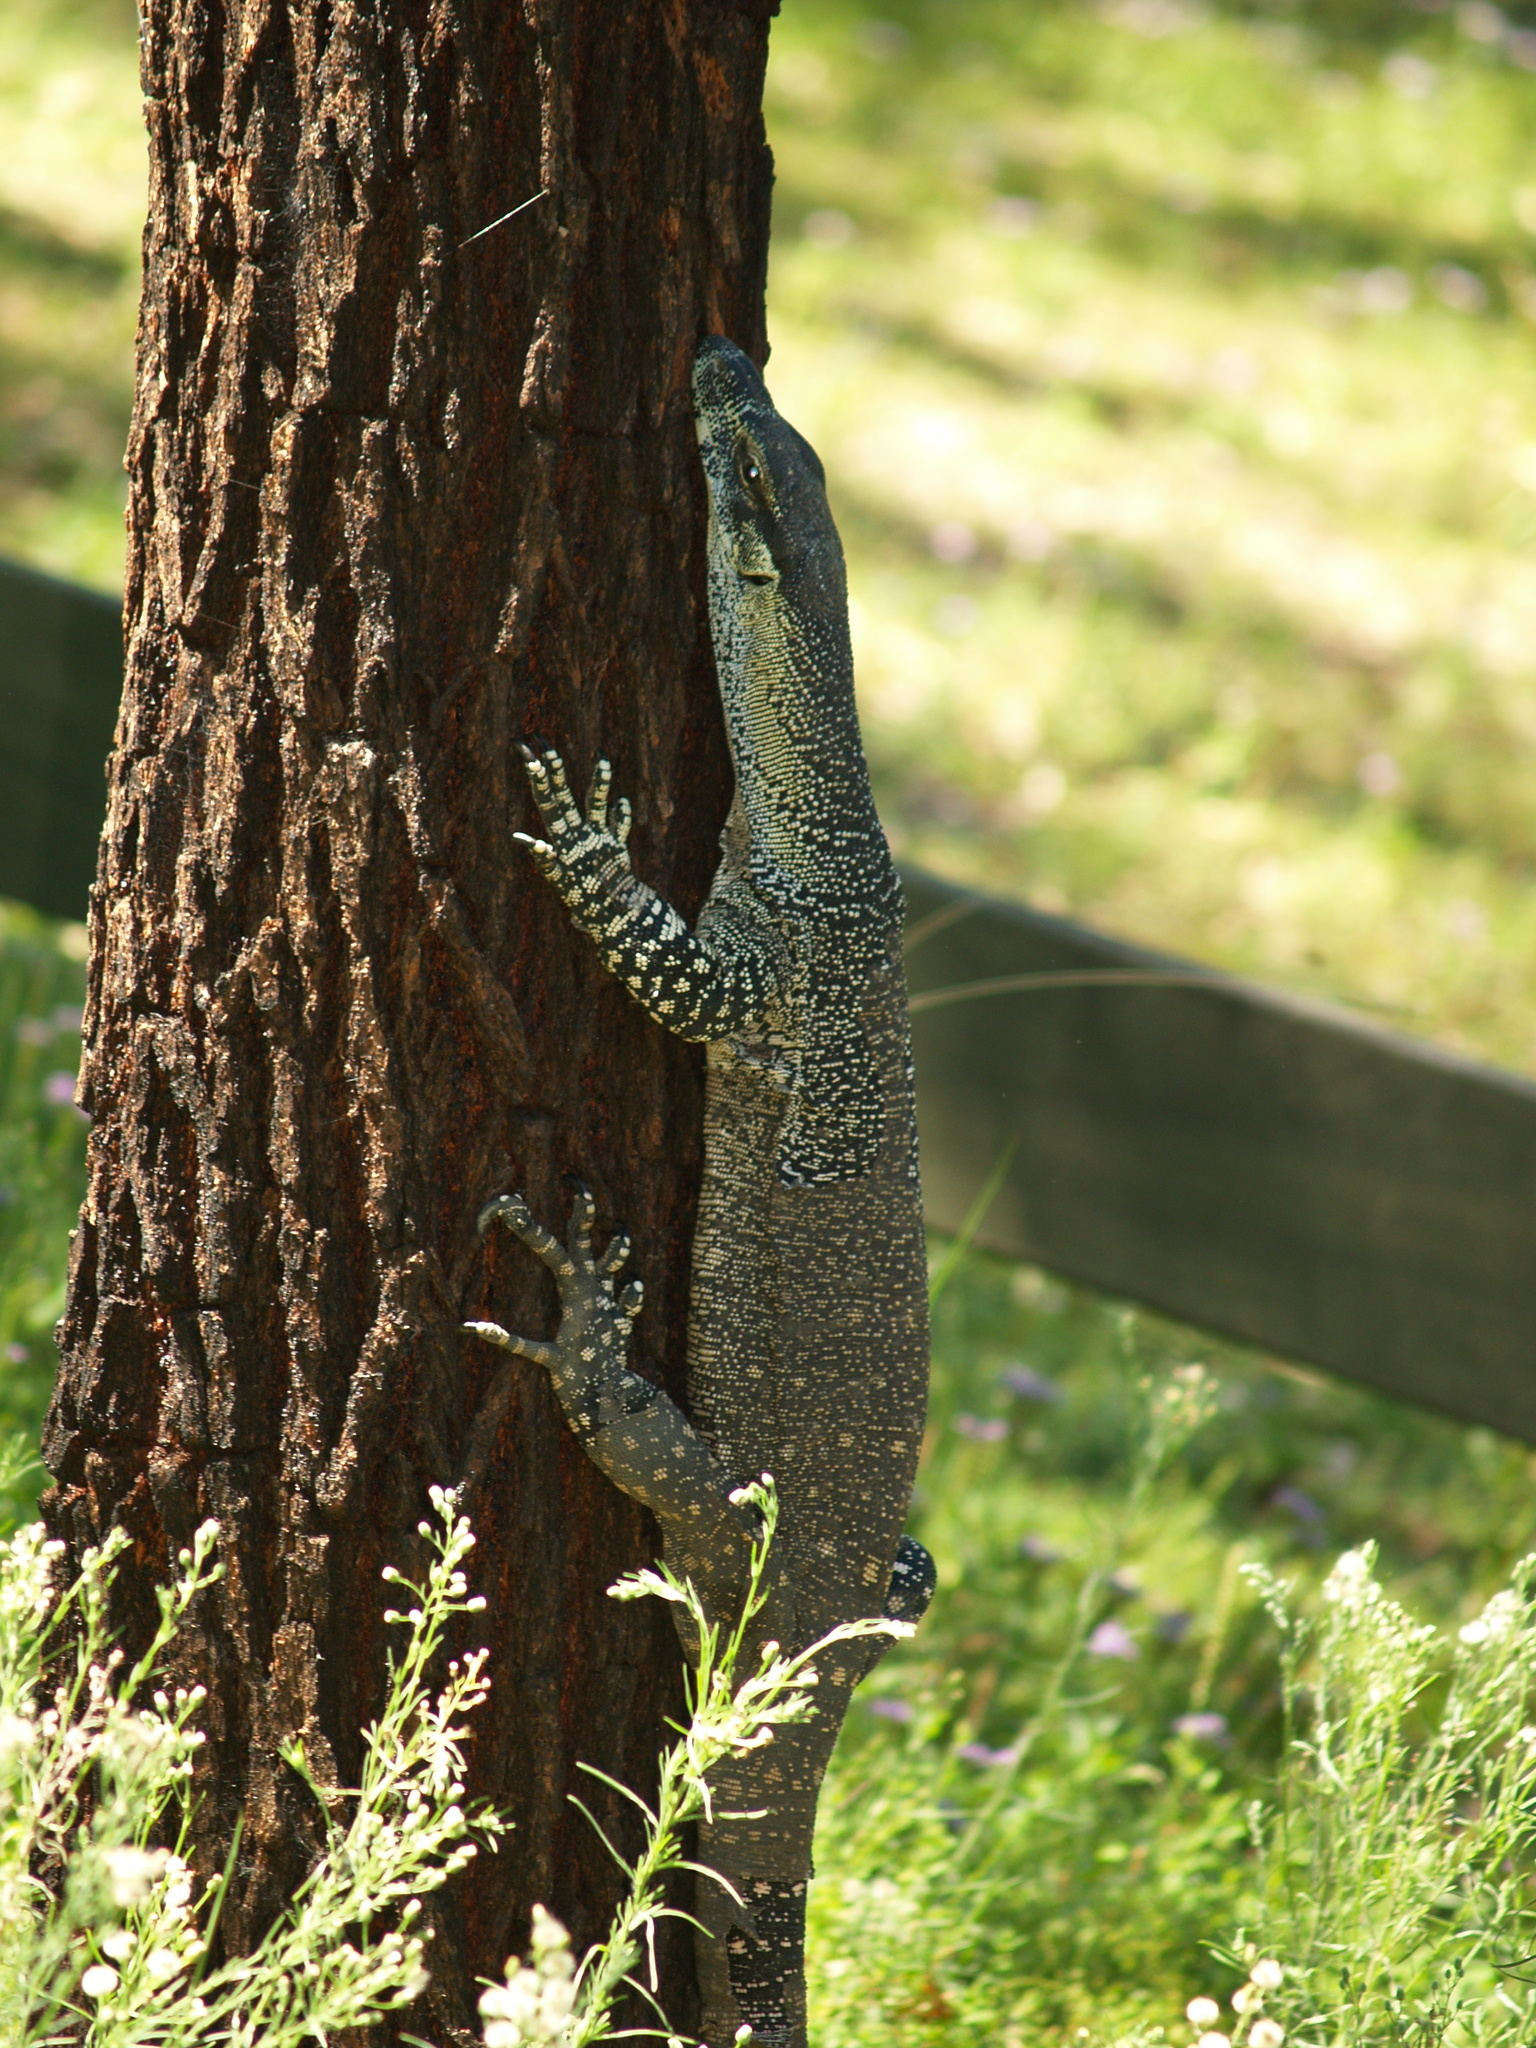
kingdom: Animalia
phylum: Chordata
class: Squamata
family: Varanidae
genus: Varanus
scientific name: Varanus varius
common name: Lace monitor
